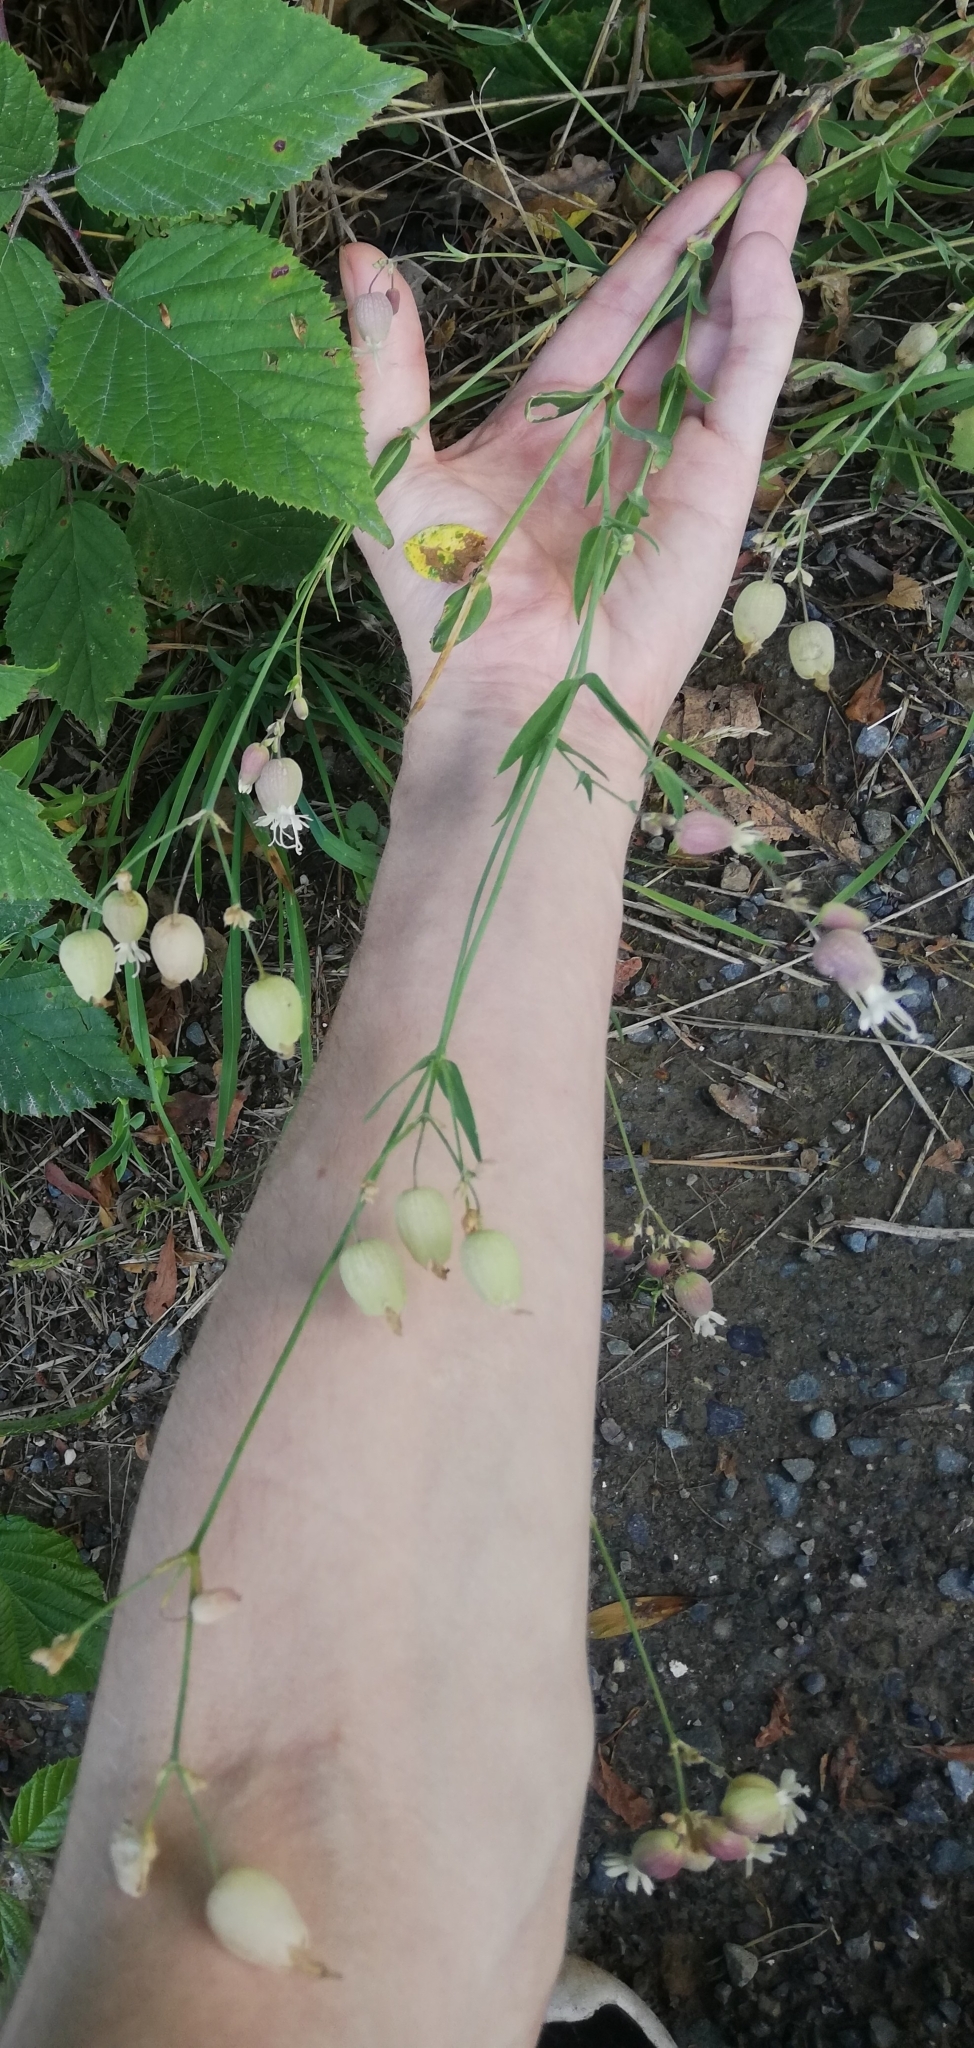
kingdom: Plantae
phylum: Tracheophyta
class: Magnoliopsida
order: Caryophyllales
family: Caryophyllaceae
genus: Silene
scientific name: Silene vulgaris
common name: Bladder campion
